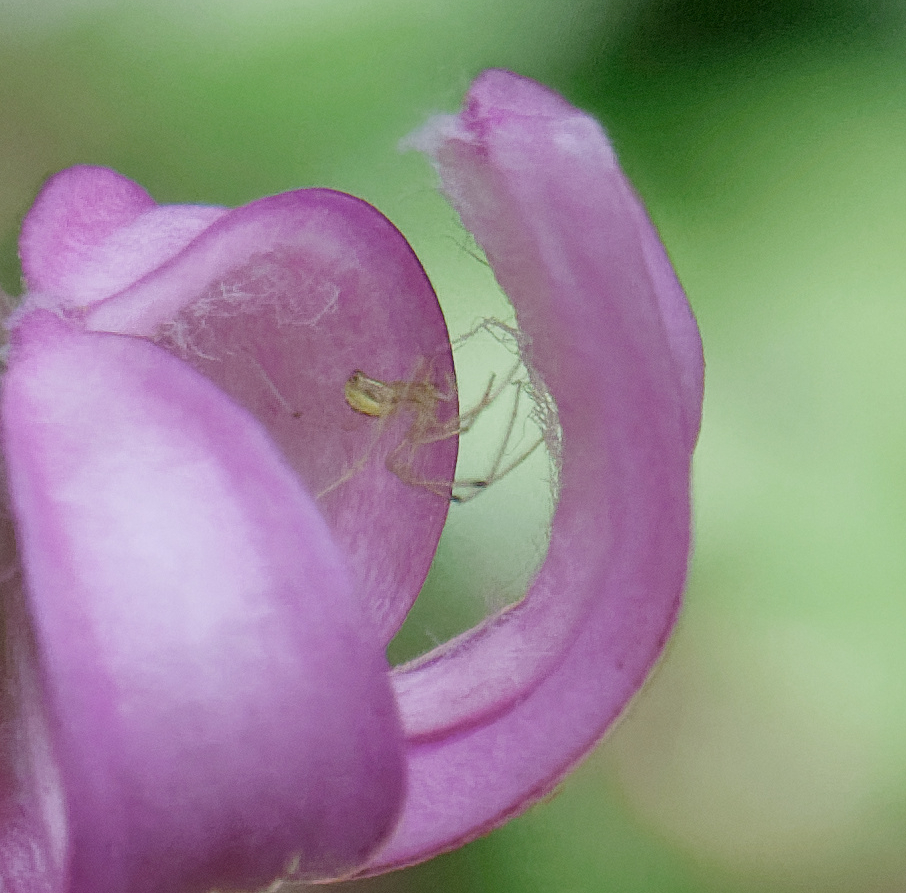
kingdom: Animalia
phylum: Arthropoda
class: Arachnida
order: Araneae
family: Theridiidae
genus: Enoplognatha
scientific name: Enoplognatha ovata
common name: Common candy-striped spider
